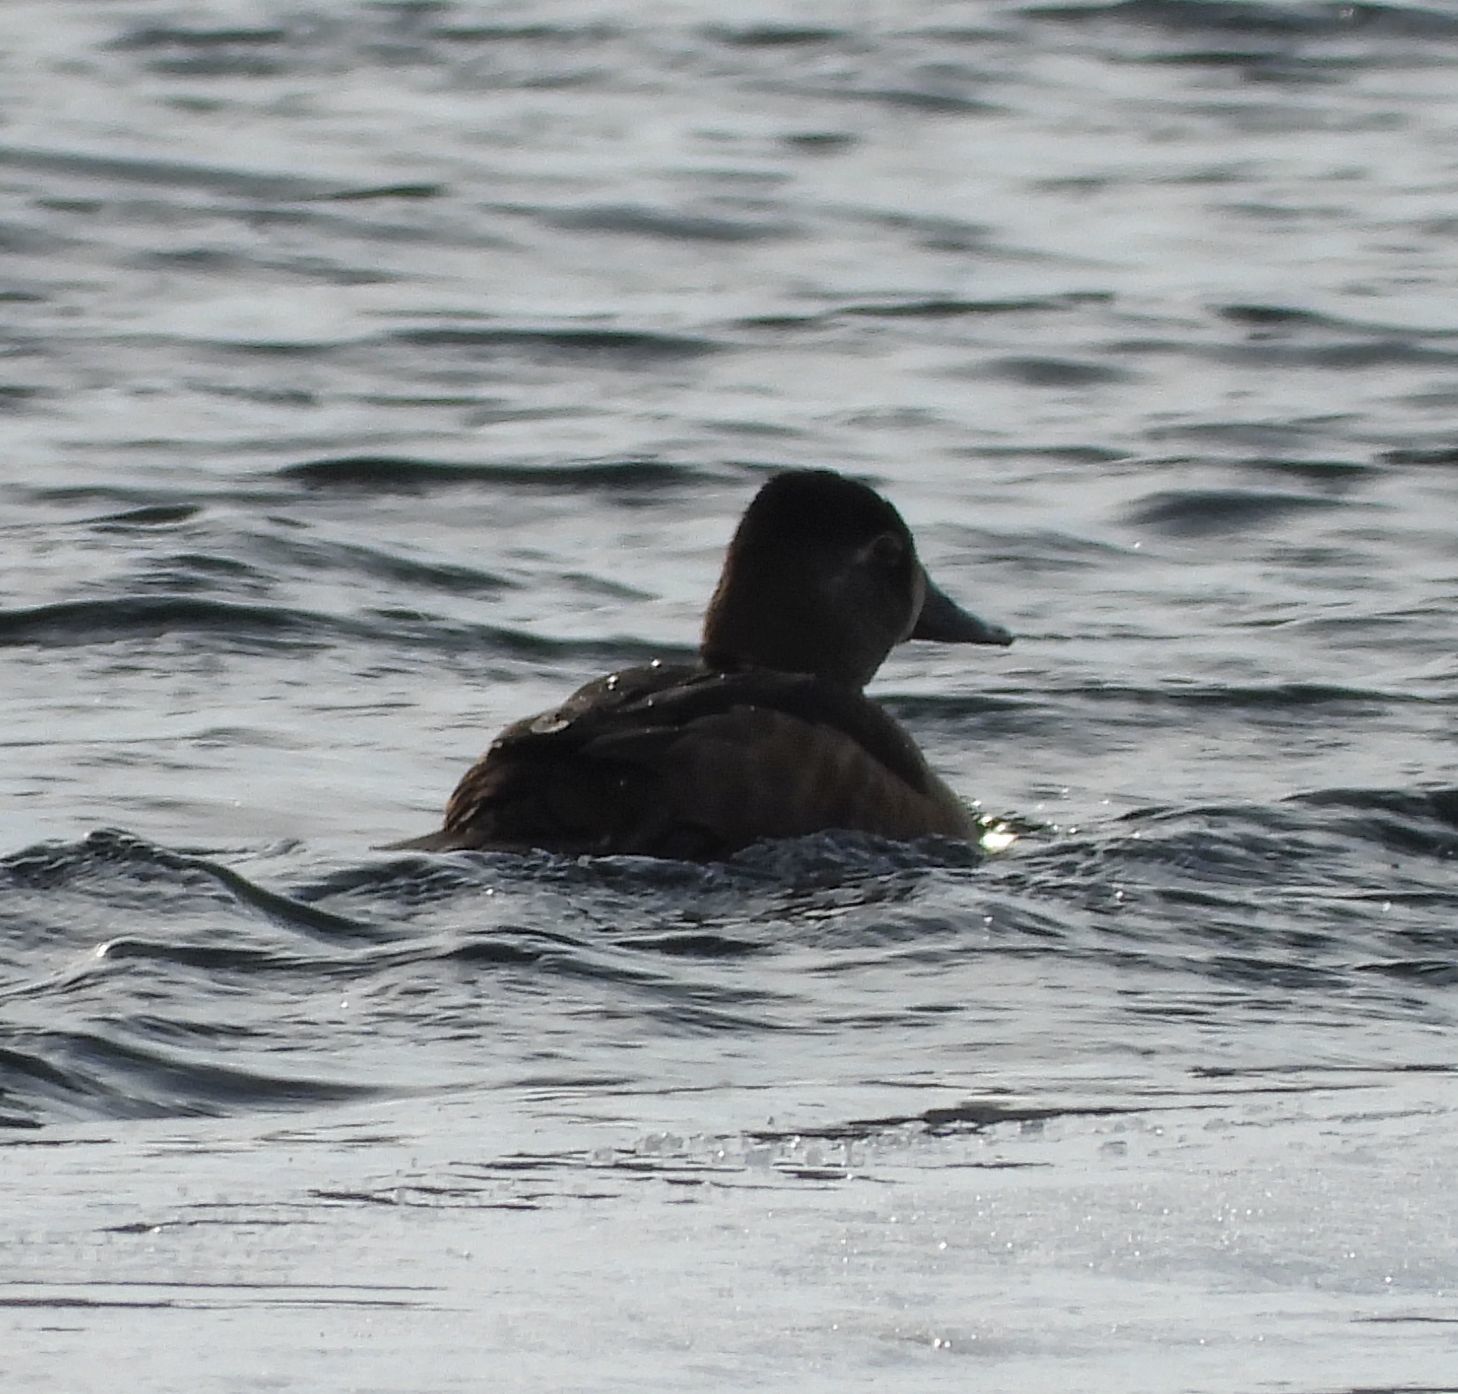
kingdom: Animalia
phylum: Chordata
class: Aves
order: Anseriformes
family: Anatidae
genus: Aythya
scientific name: Aythya collaris
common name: Ring-necked duck
